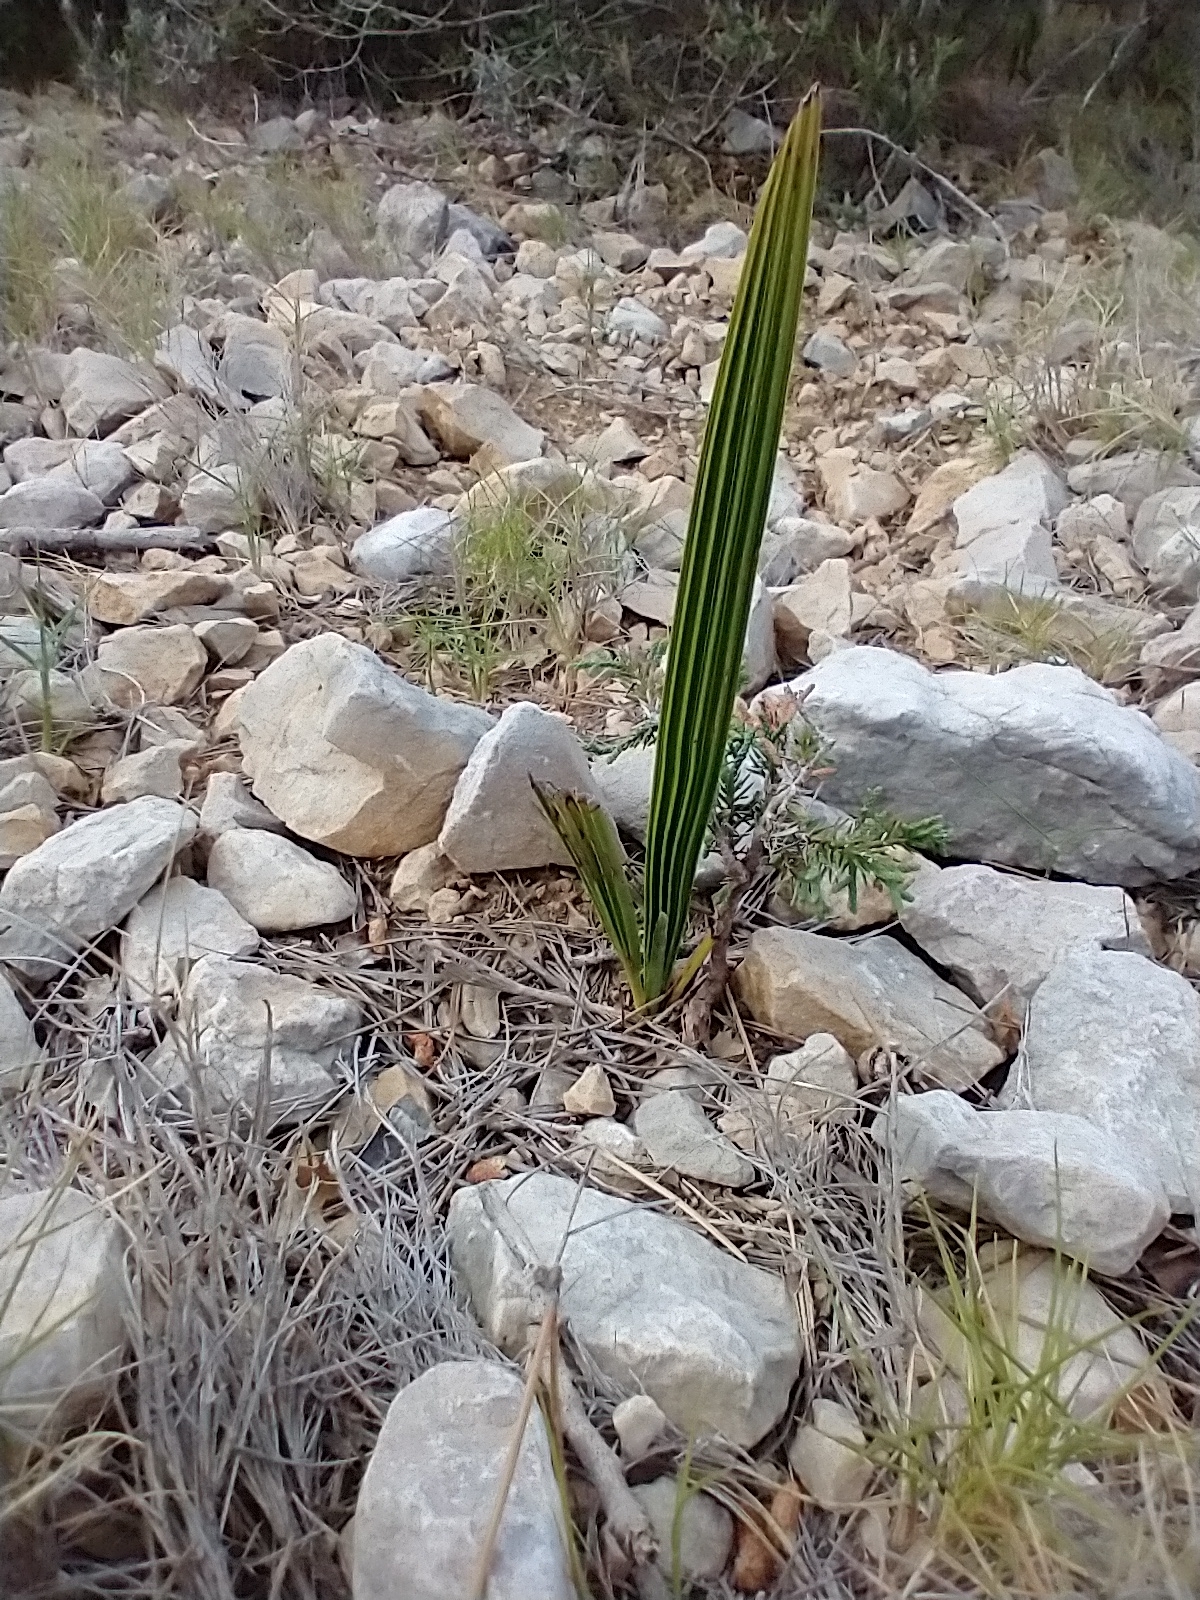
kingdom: Plantae
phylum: Tracheophyta
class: Liliopsida
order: Arecales
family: Arecaceae
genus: Chamaerops
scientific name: Chamaerops humilis
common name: Dwarf fan palm
